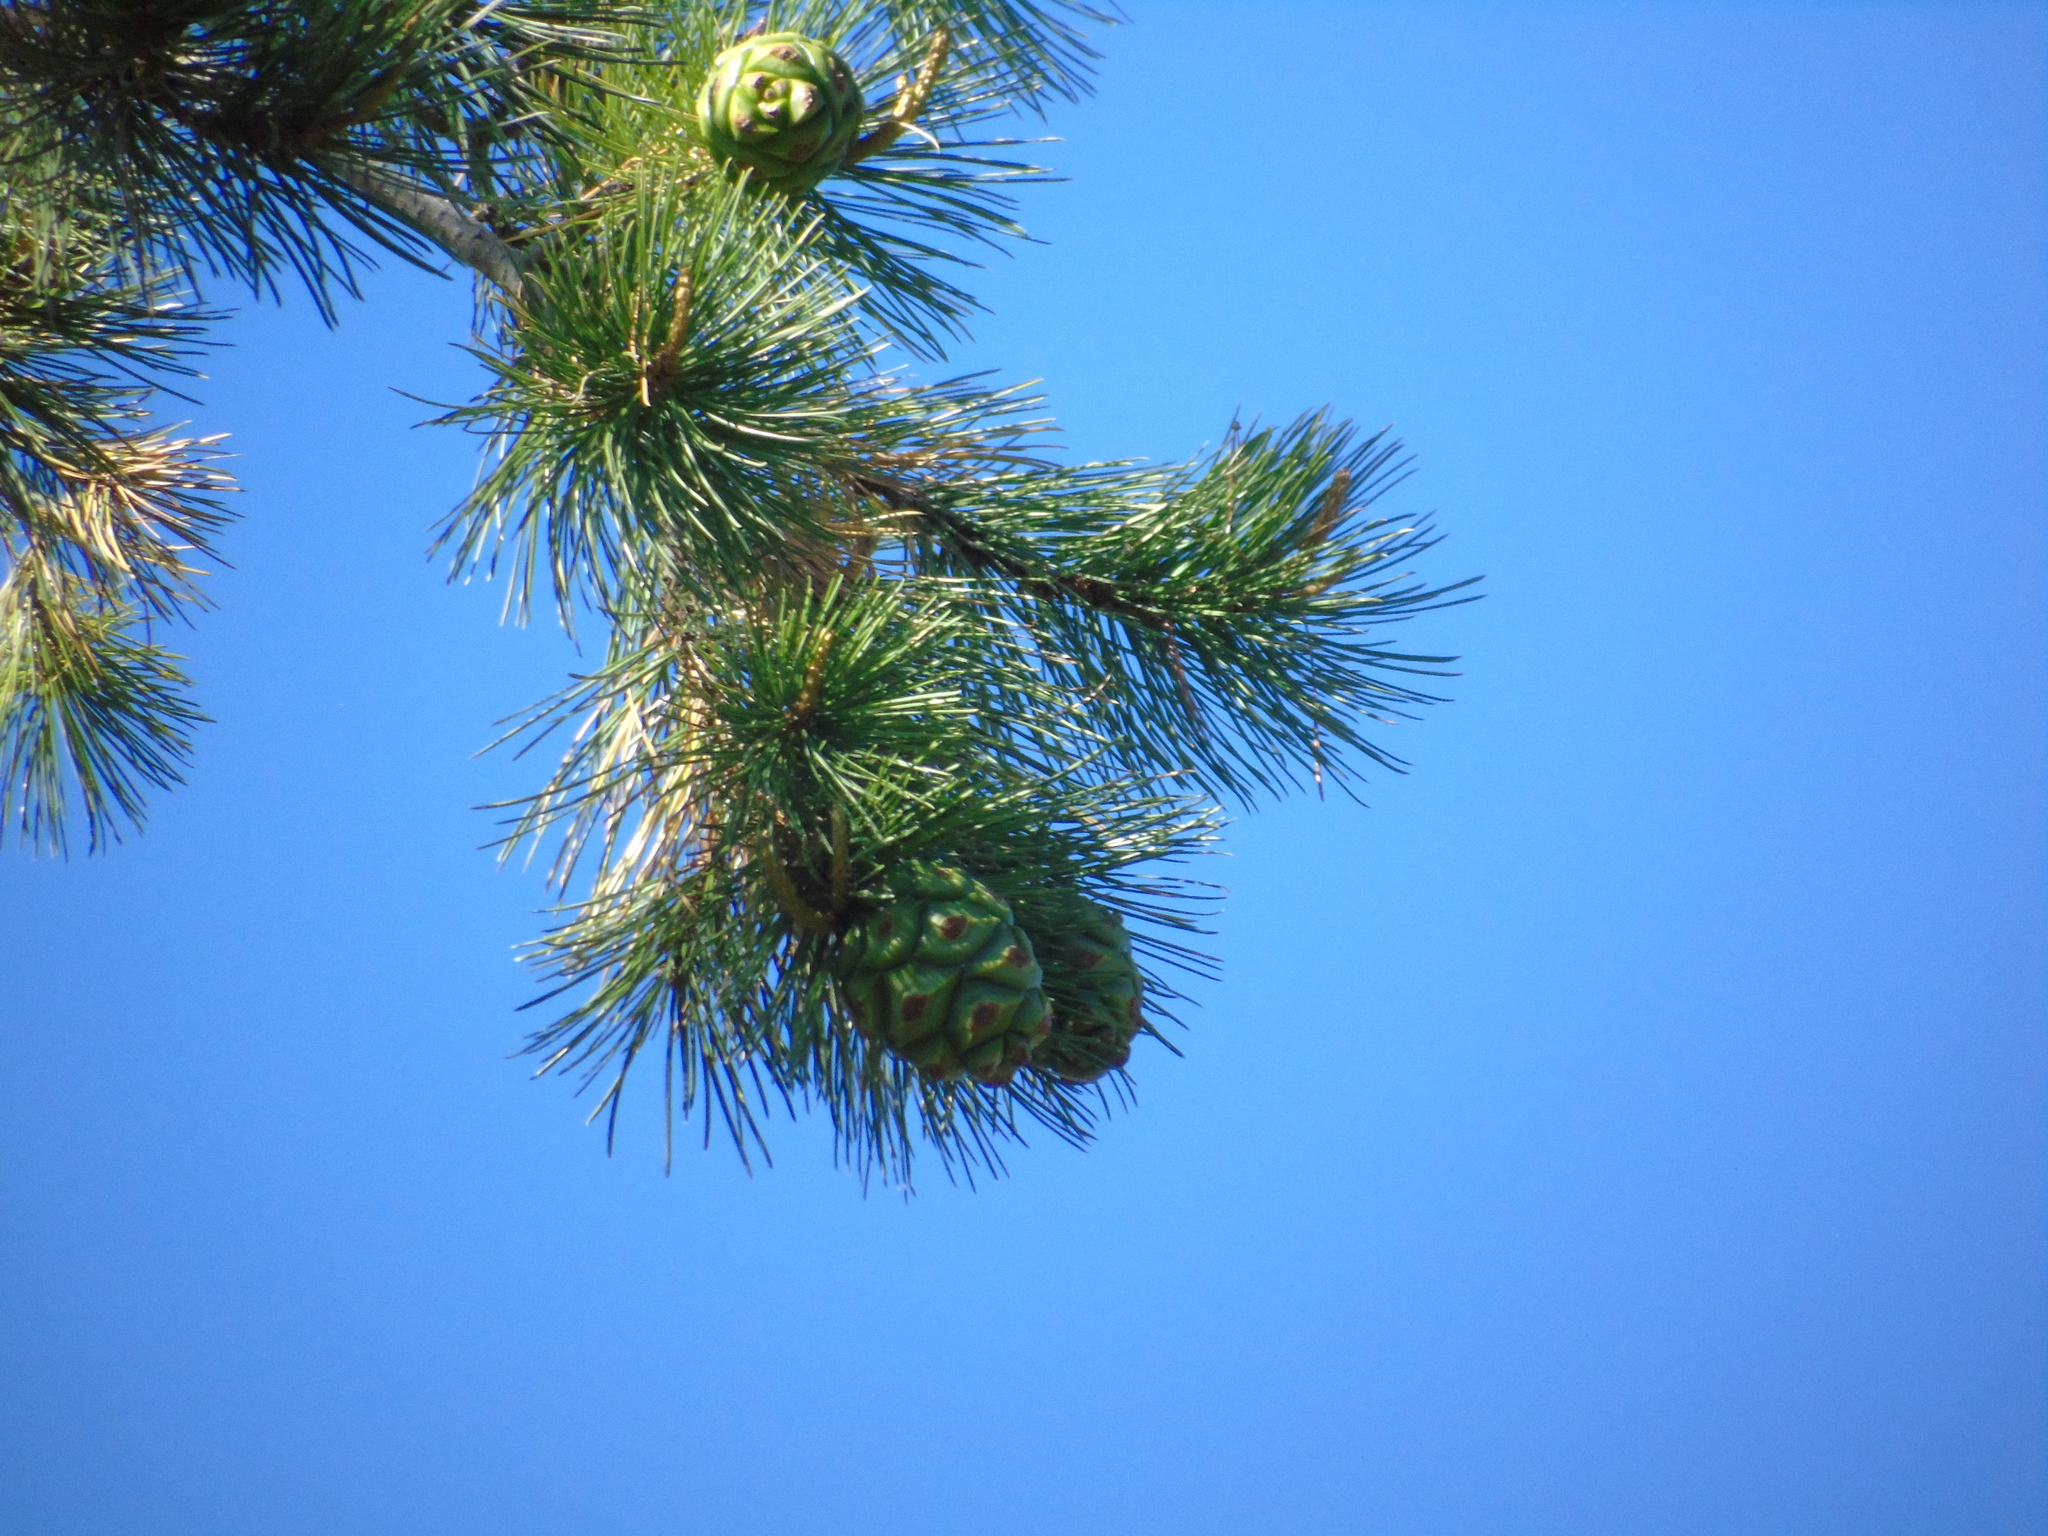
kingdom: Plantae
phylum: Tracheophyta
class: Pinopsida
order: Pinales
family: Pinaceae
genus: Pinus
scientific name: Pinus cembroides
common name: Mexican nut pine
